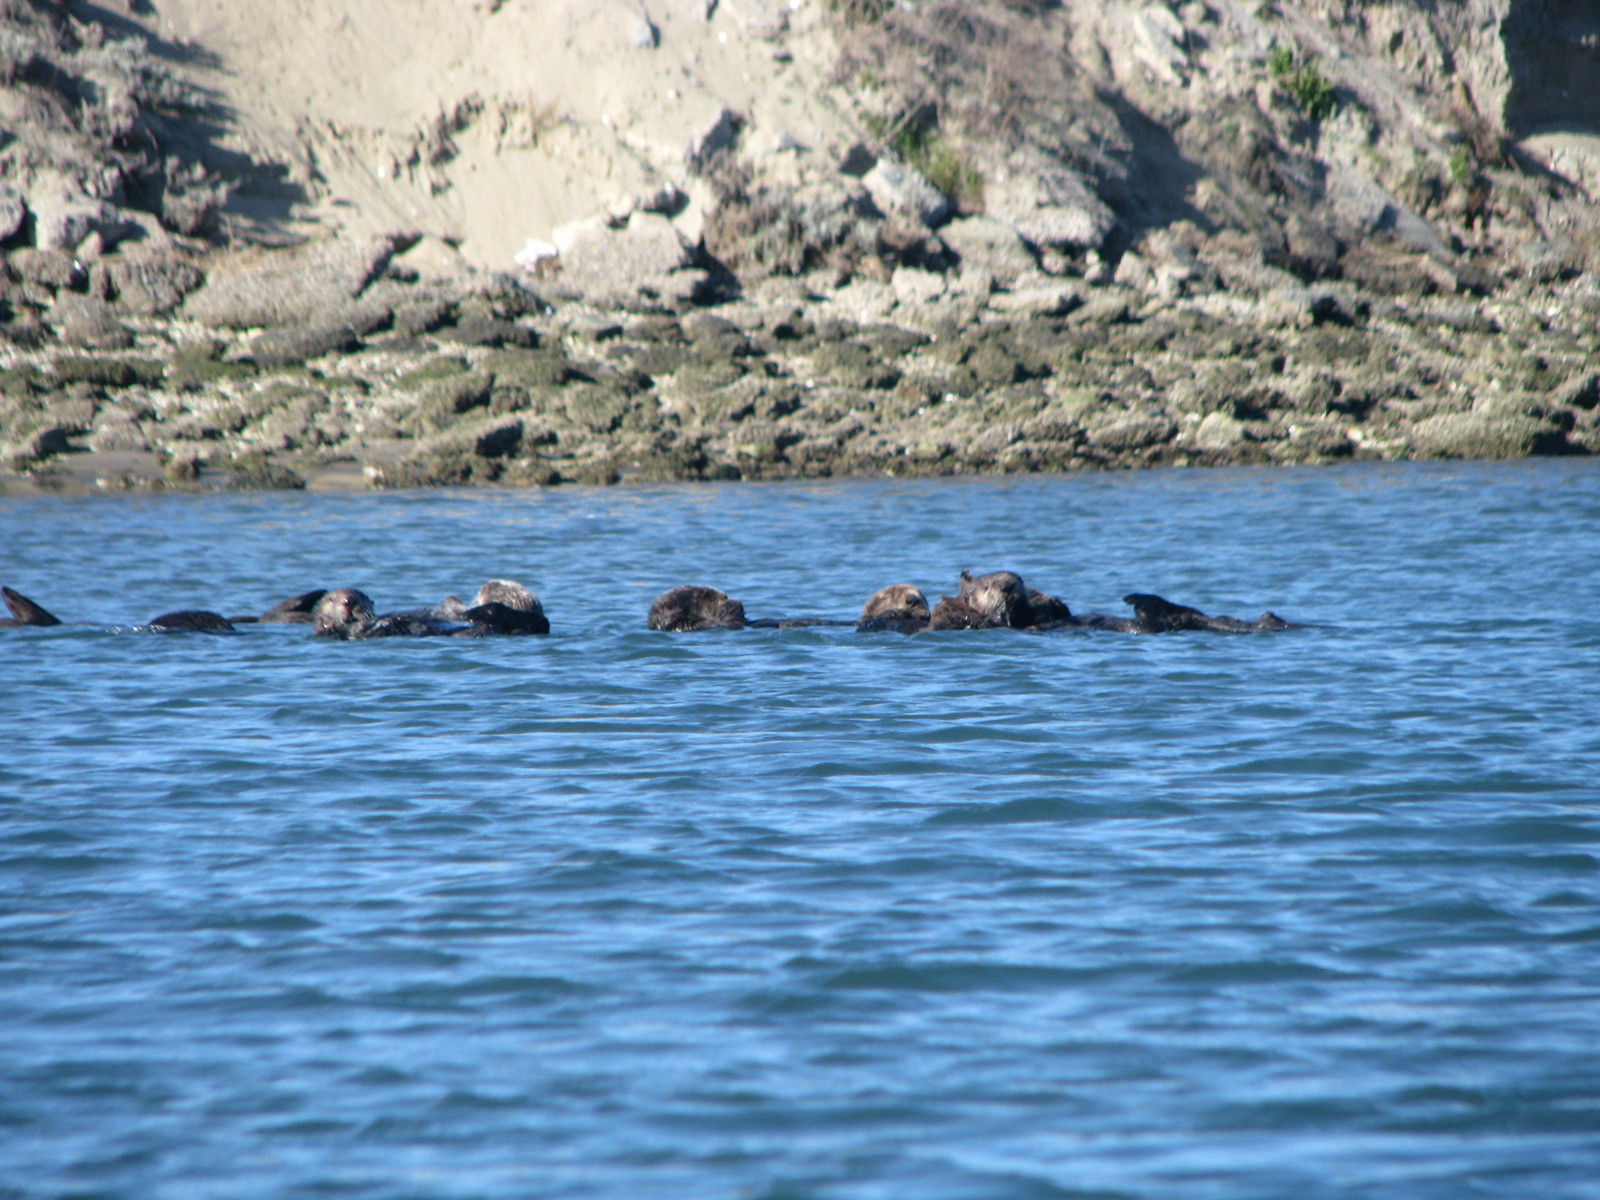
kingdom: Animalia
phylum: Chordata
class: Mammalia
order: Carnivora
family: Mustelidae
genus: Enhydra
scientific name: Enhydra lutris
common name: Sea otter
